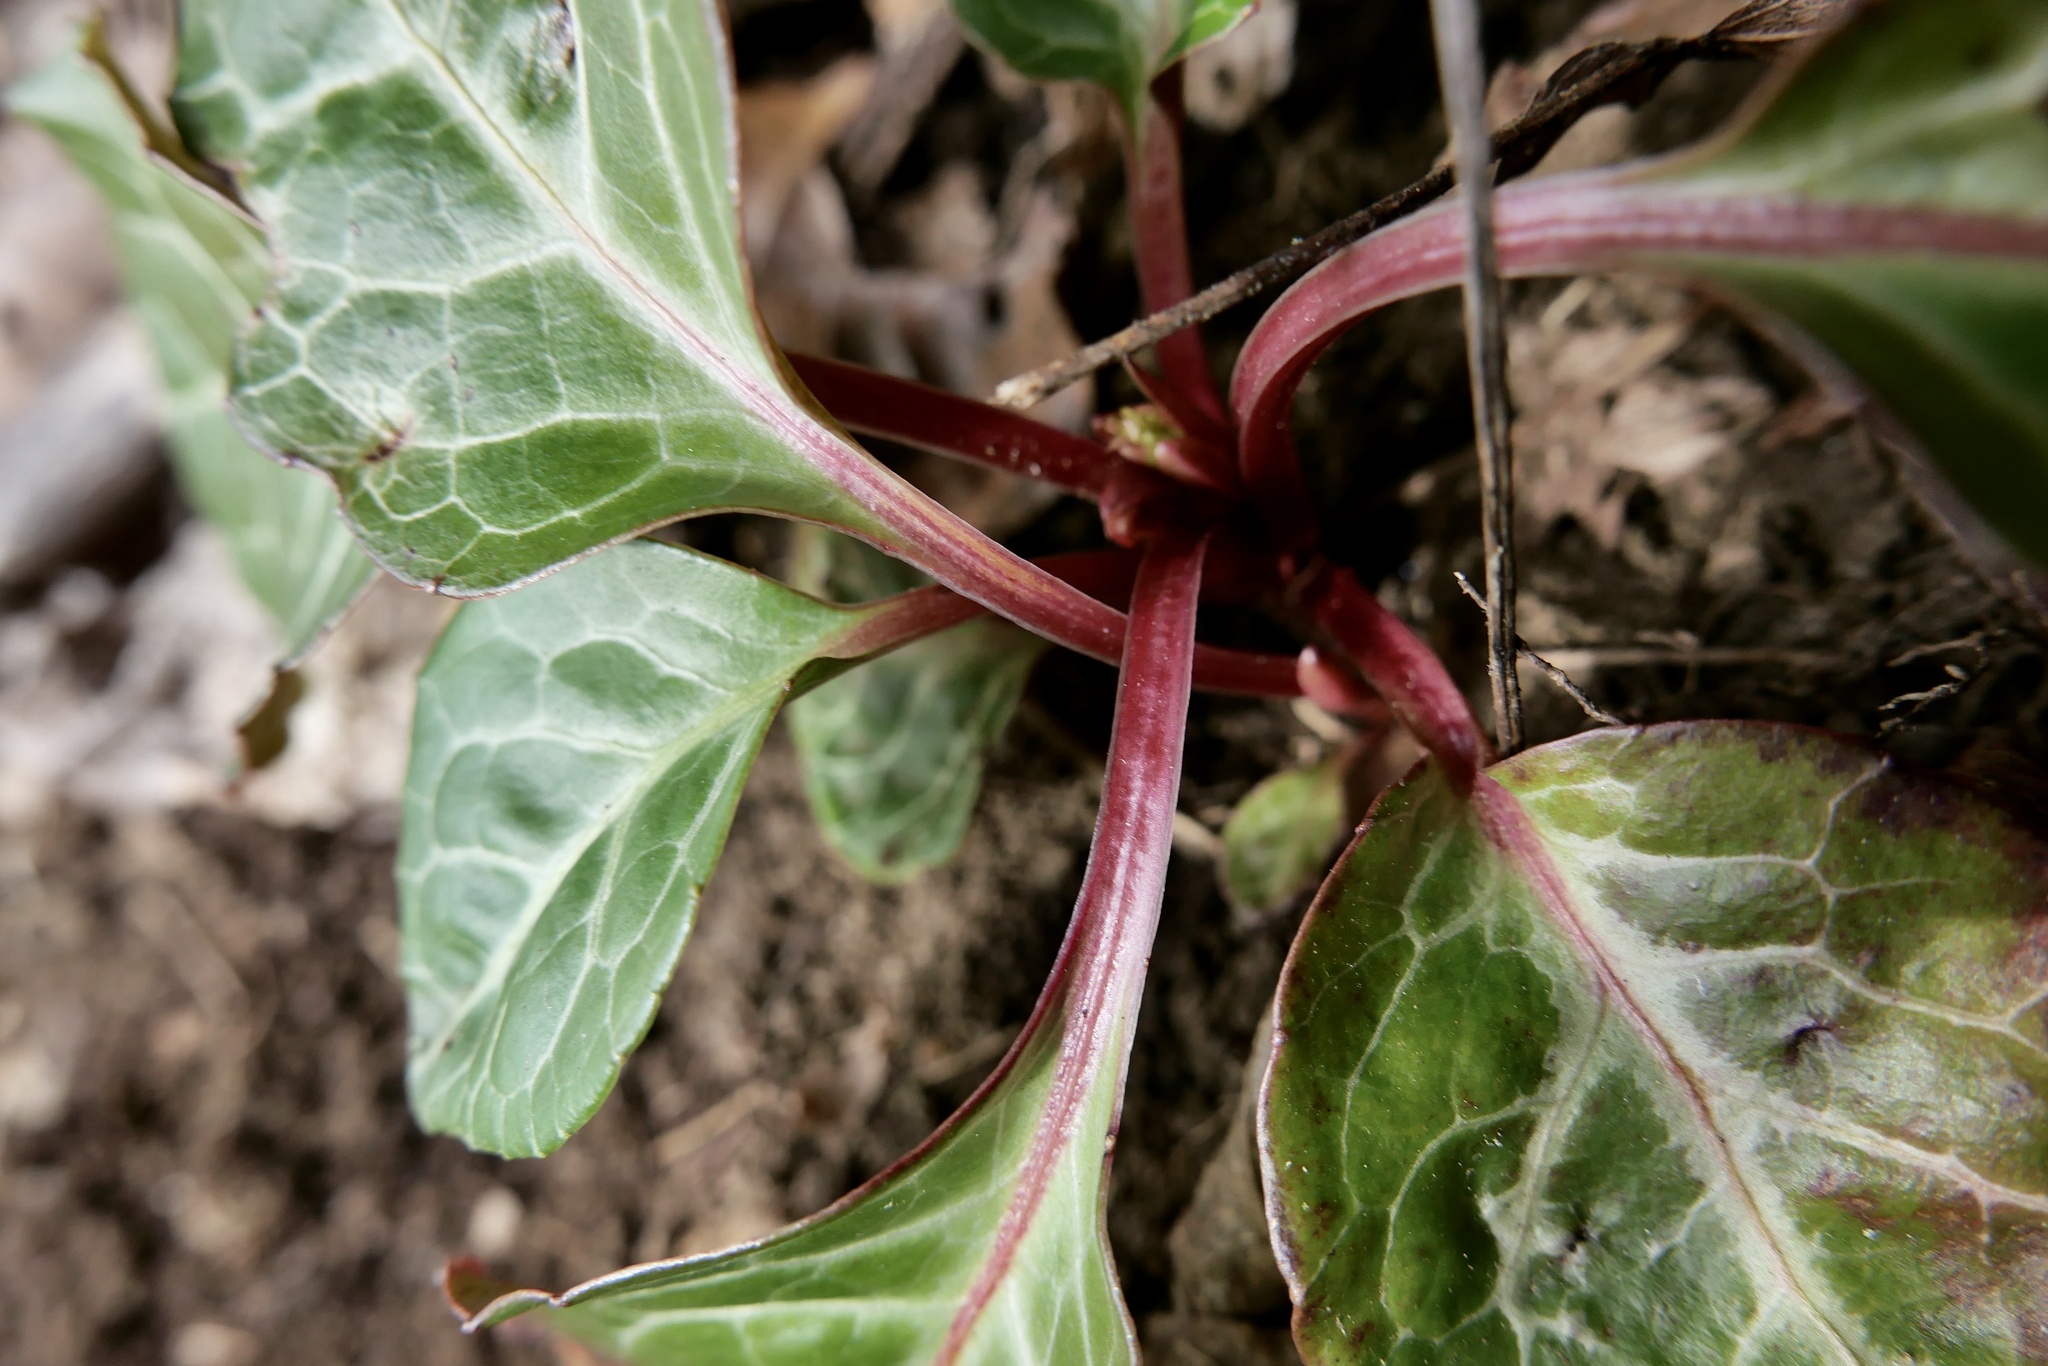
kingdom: Plantae
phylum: Tracheophyta
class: Magnoliopsida
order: Ericales
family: Ericaceae
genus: Pyrola
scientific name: Pyrola americana
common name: American wintergreen
